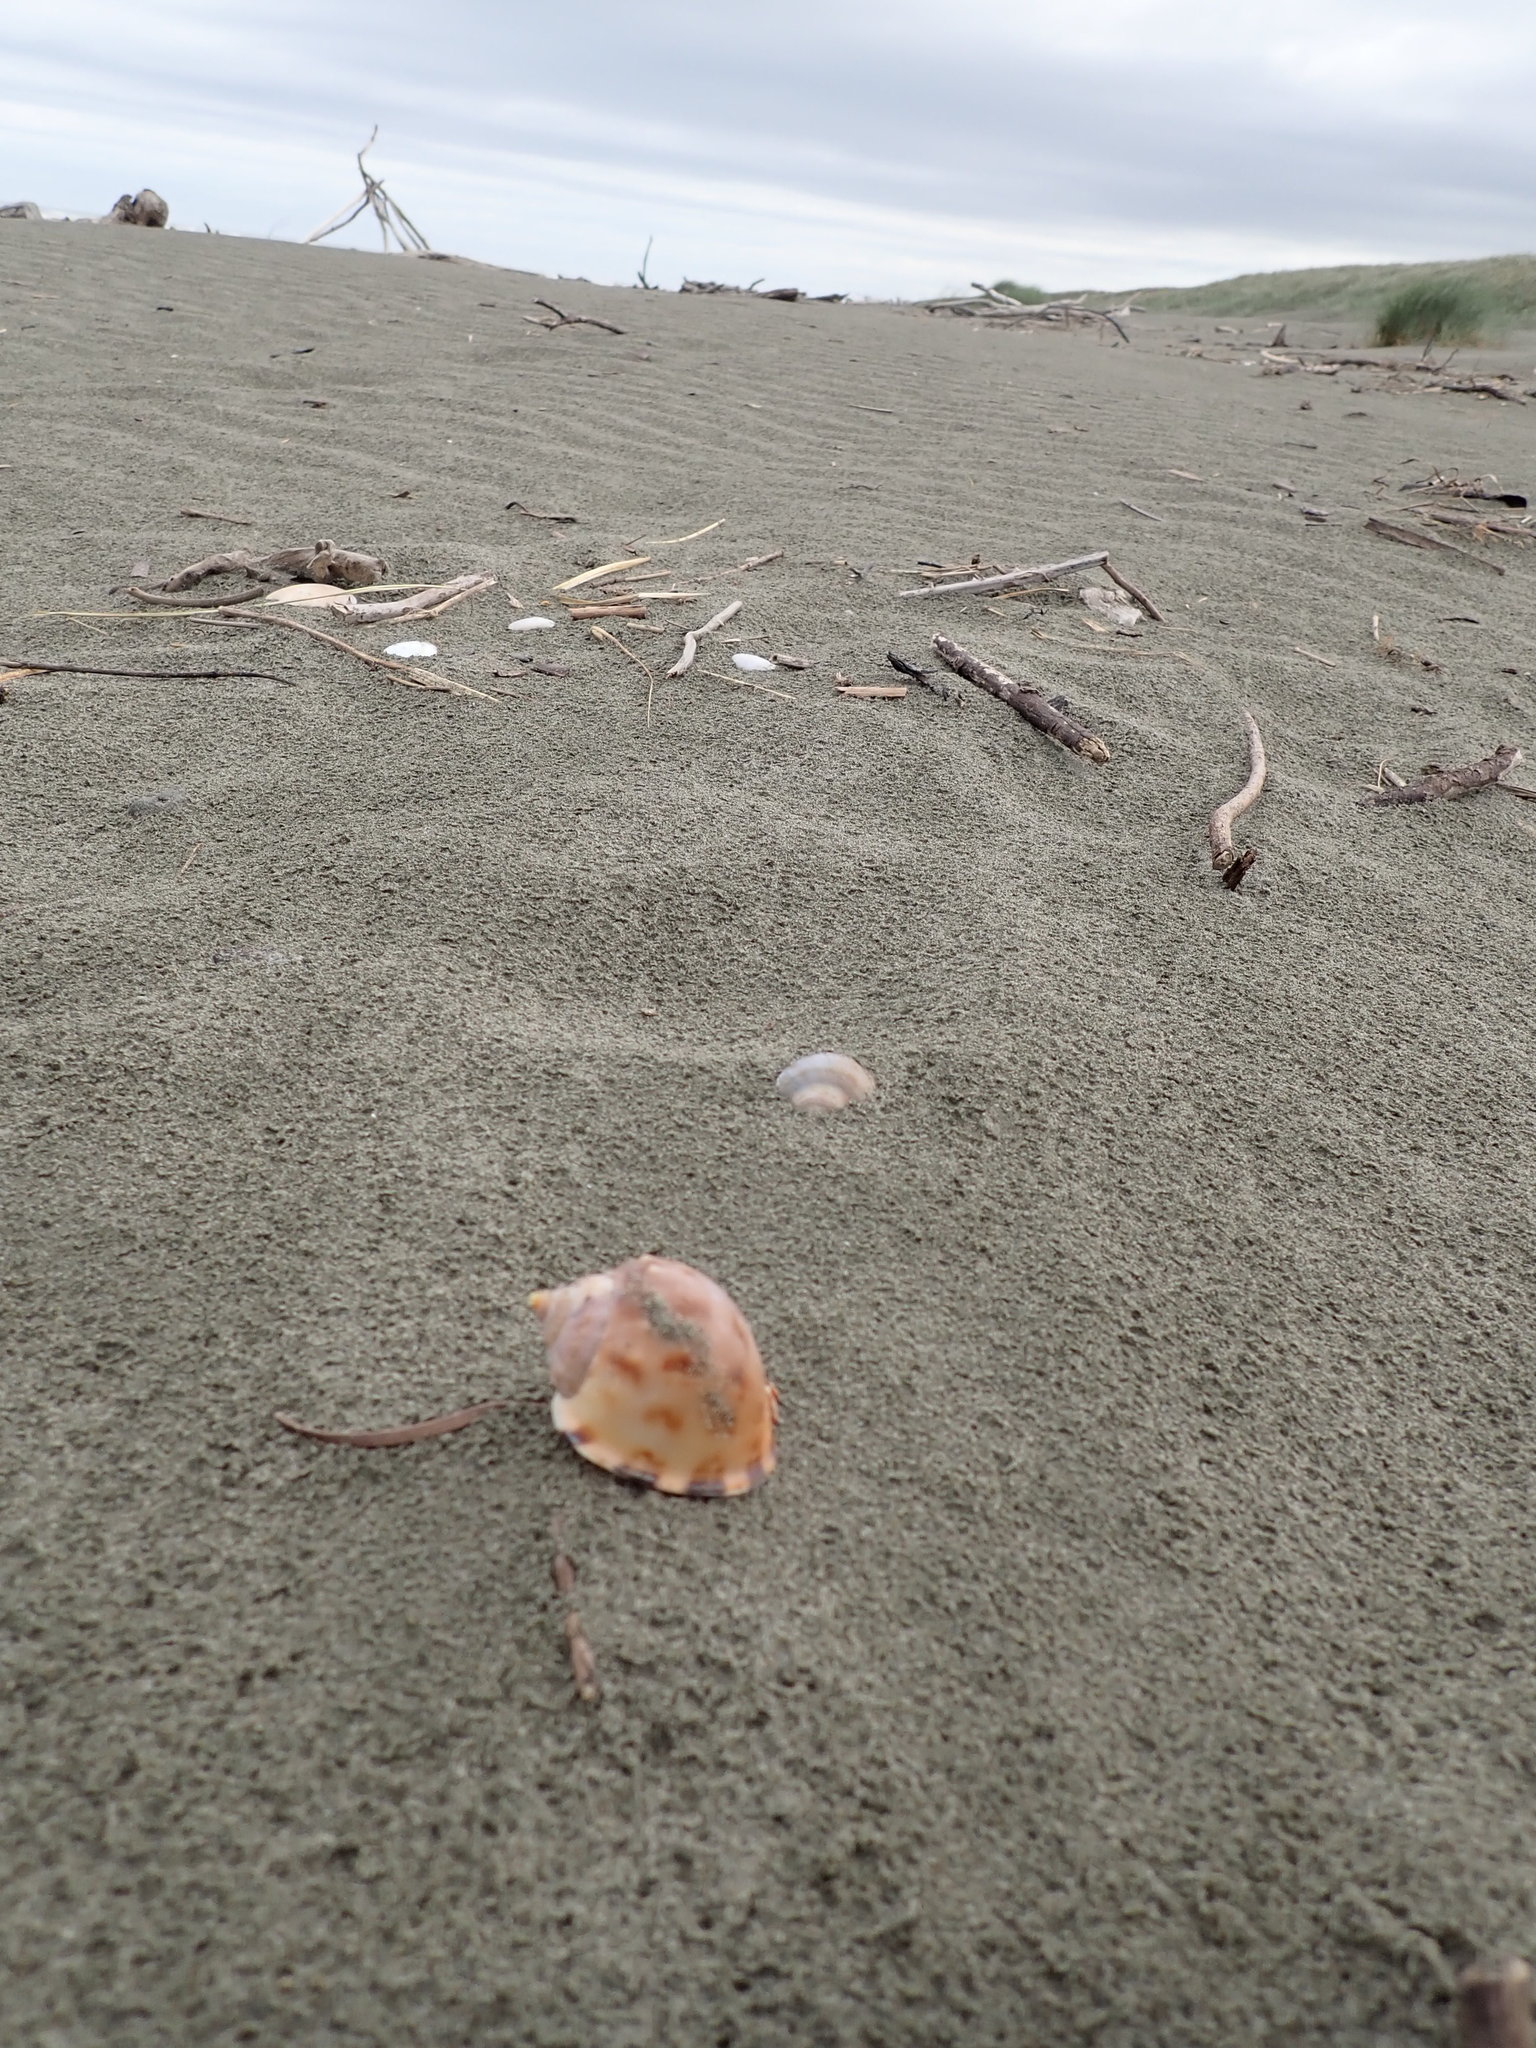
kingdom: Animalia
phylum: Mollusca
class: Gastropoda
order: Littorinimorpha
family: Cassidae
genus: Semicassis
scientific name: Semicassis pyrum
